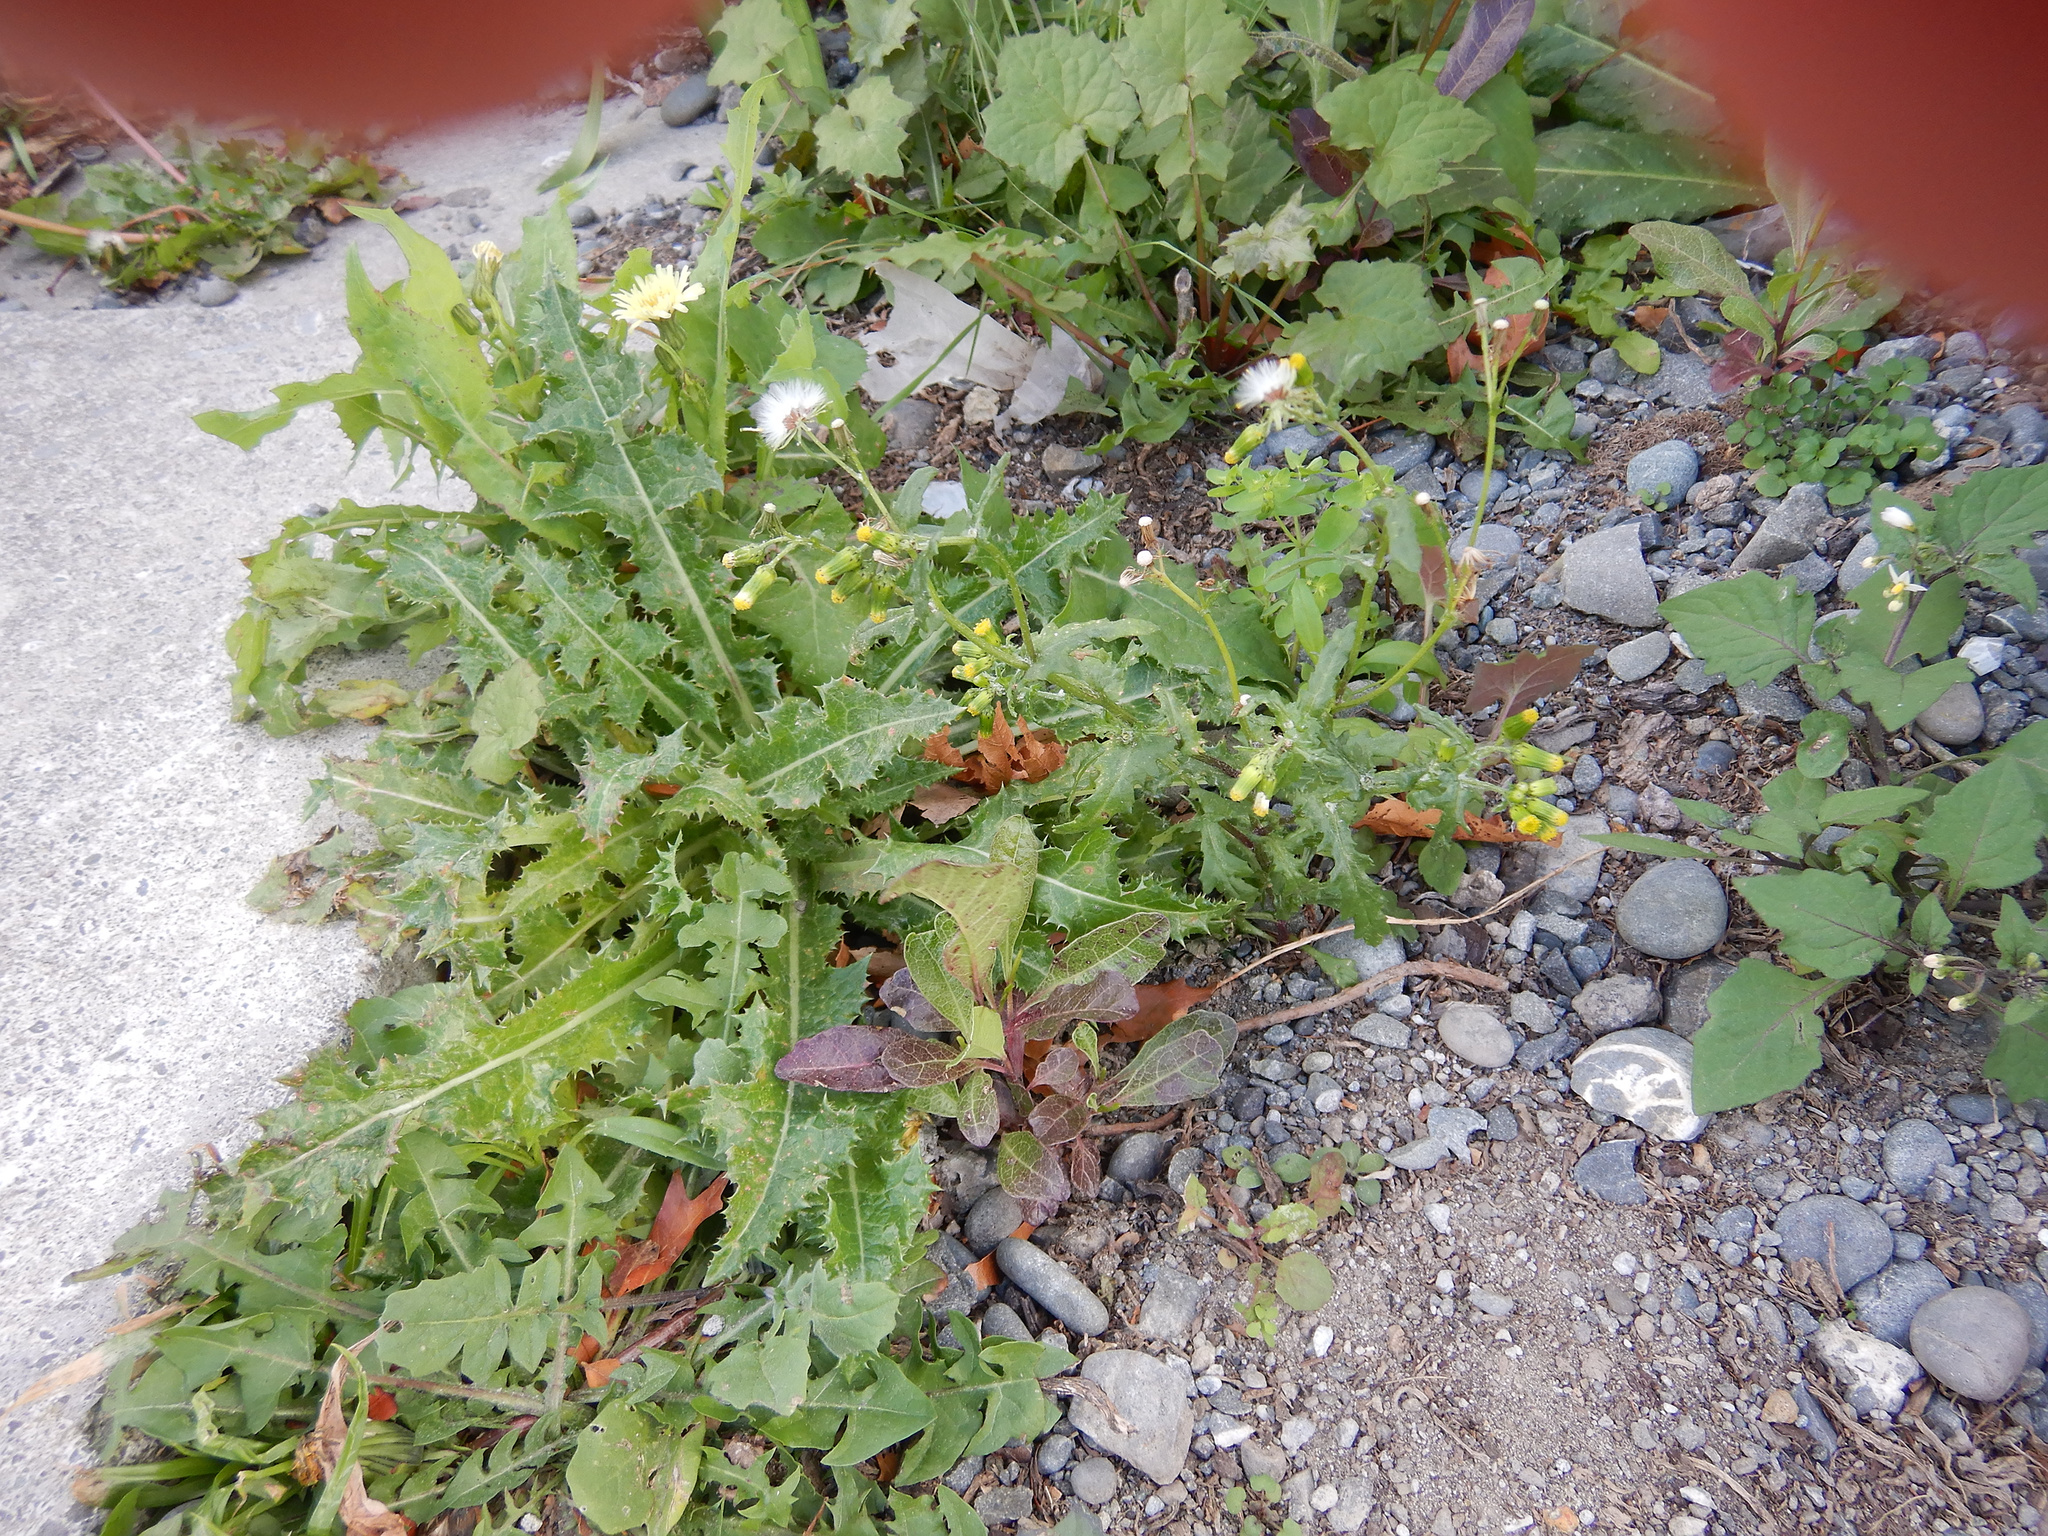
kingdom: Plantae
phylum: Tracheophyta
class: Magnoliopsida
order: Asterales
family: Asteraceae
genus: Senecio
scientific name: Senecio vulgaris
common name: Old-man-in-the-spring
